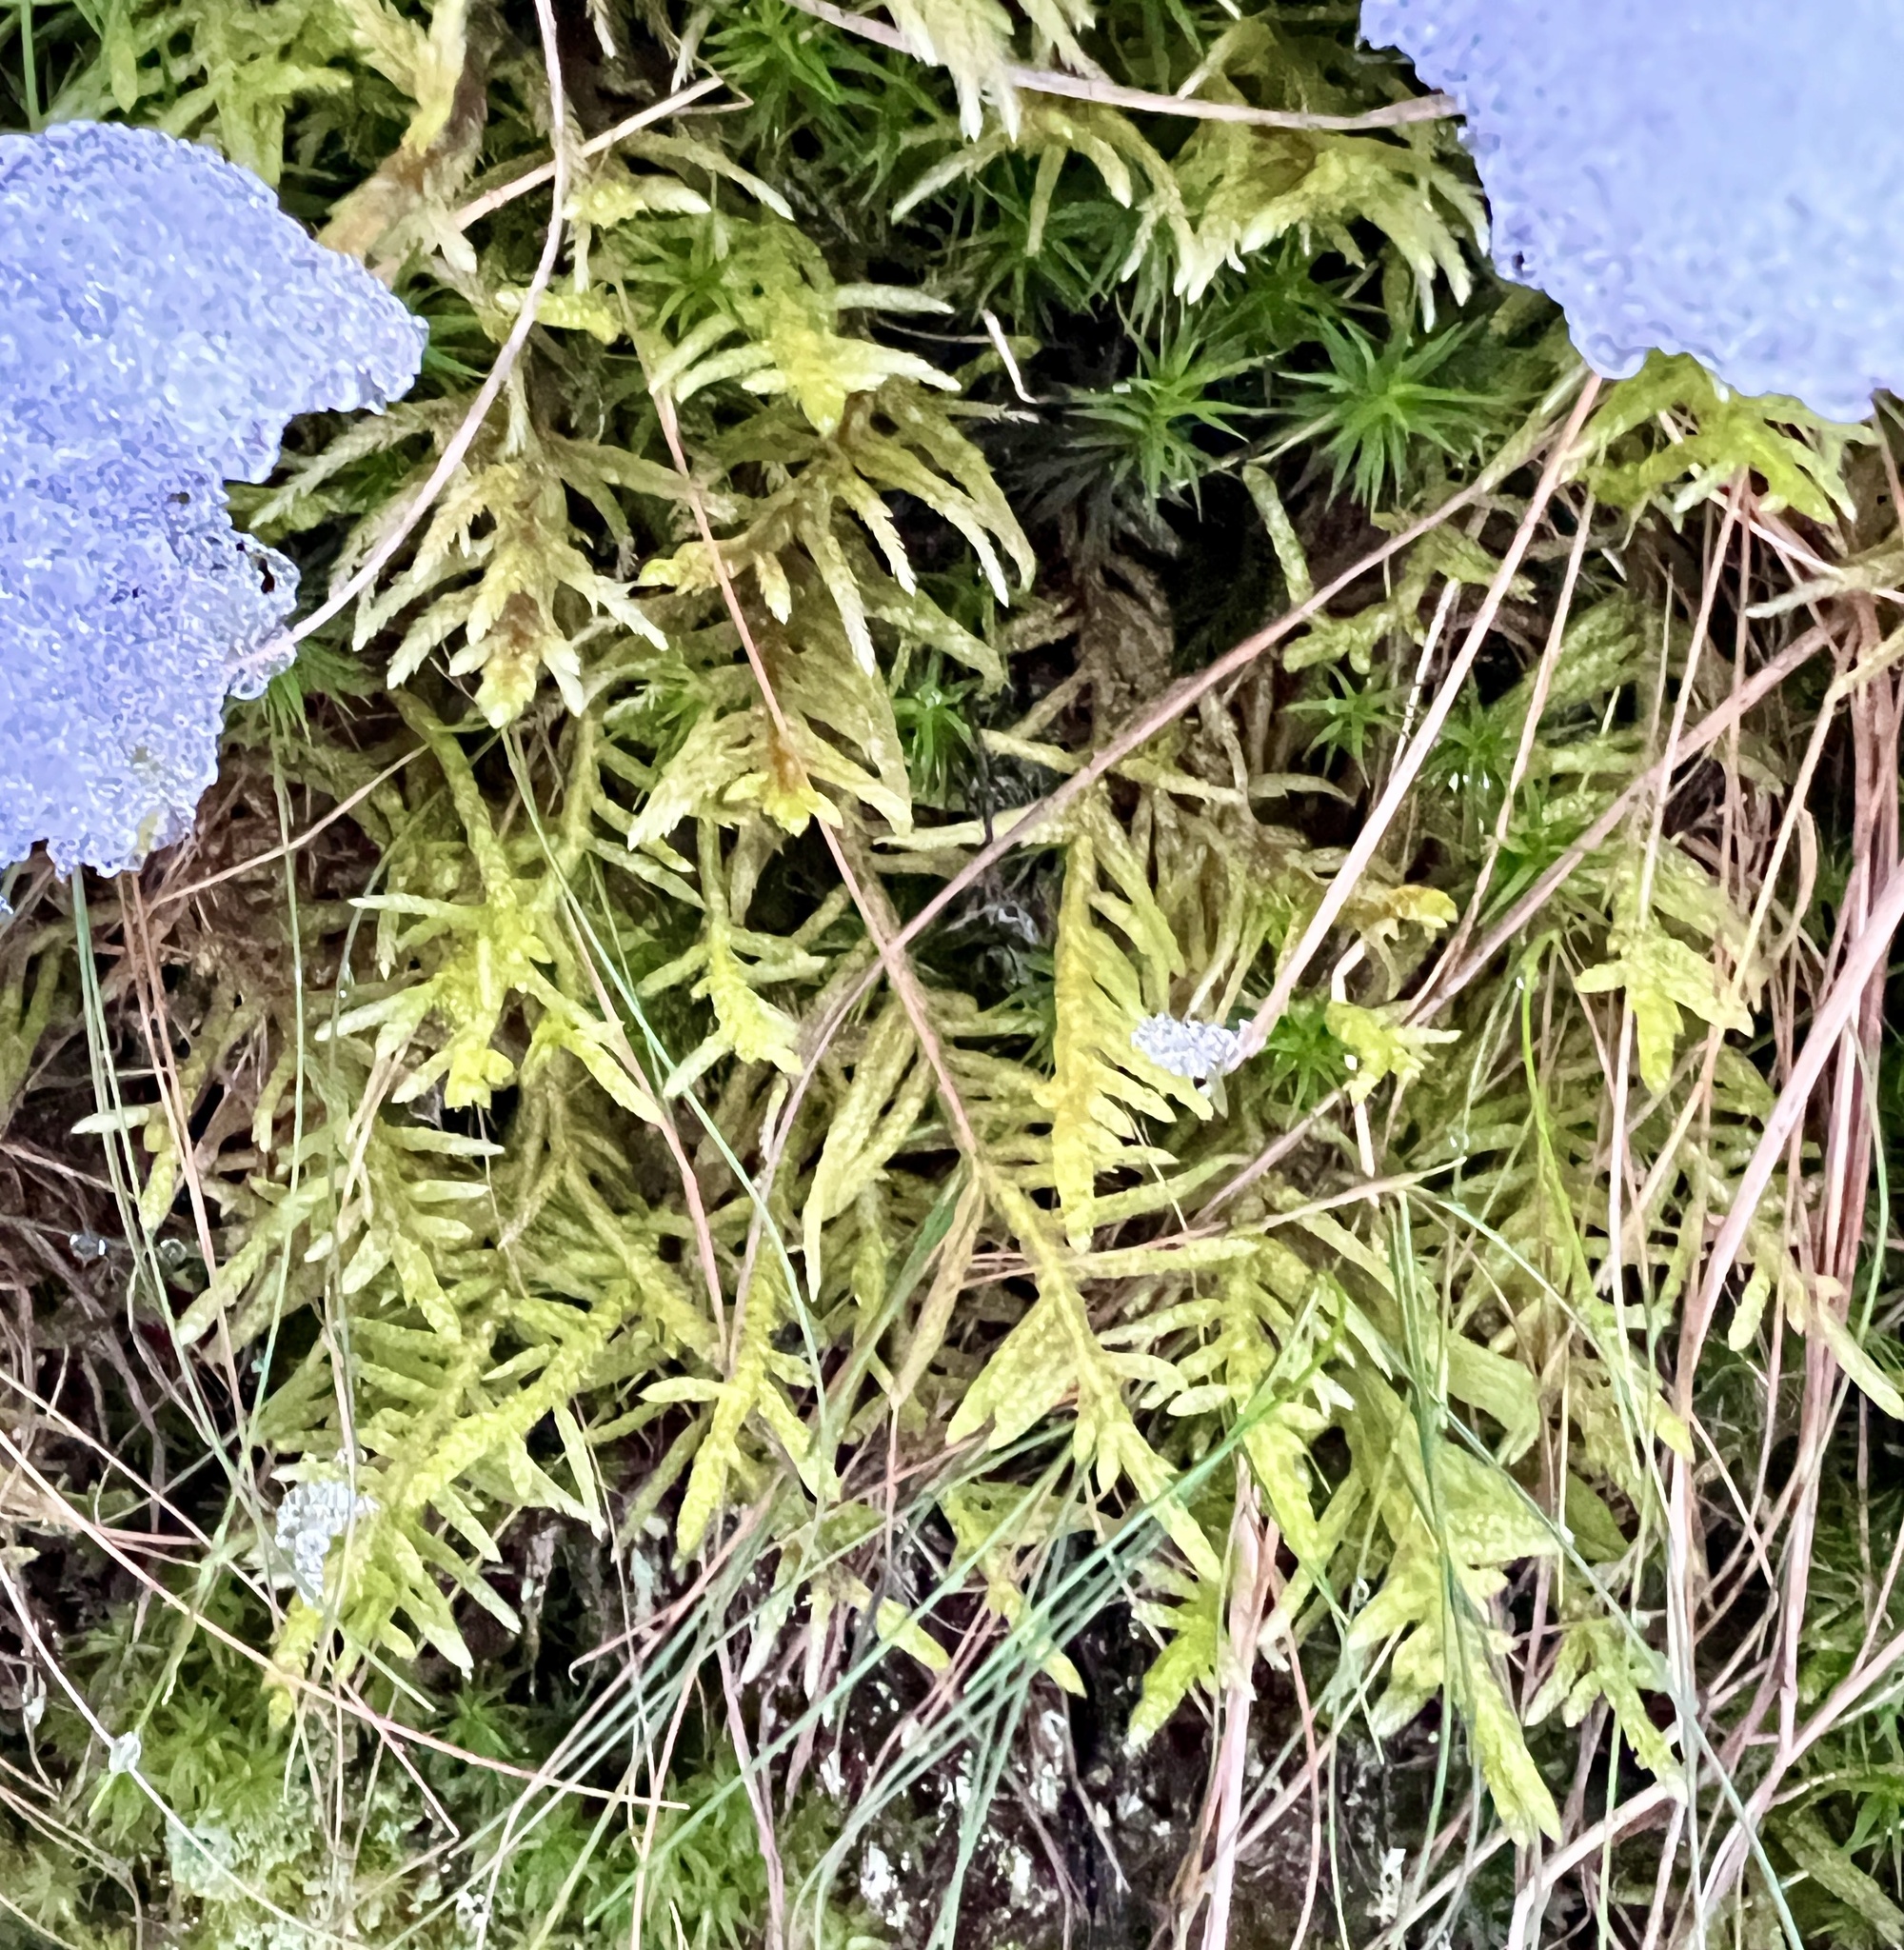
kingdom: Plantae
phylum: Bryophyta
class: Bryopsida
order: Hypnales
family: Brachytheciaceae
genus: Pseudoscleropodium
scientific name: Pseudoscleropodium purum
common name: Neat feather-moss
